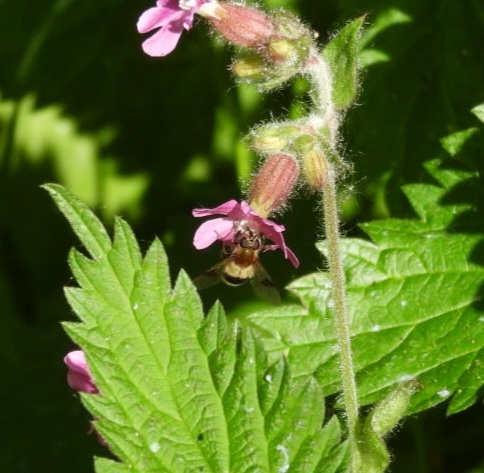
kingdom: Animalia
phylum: Arthropoda
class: Insecta
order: Diptera
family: Syrphidae
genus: Leucozona
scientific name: Leucozona lucorum
